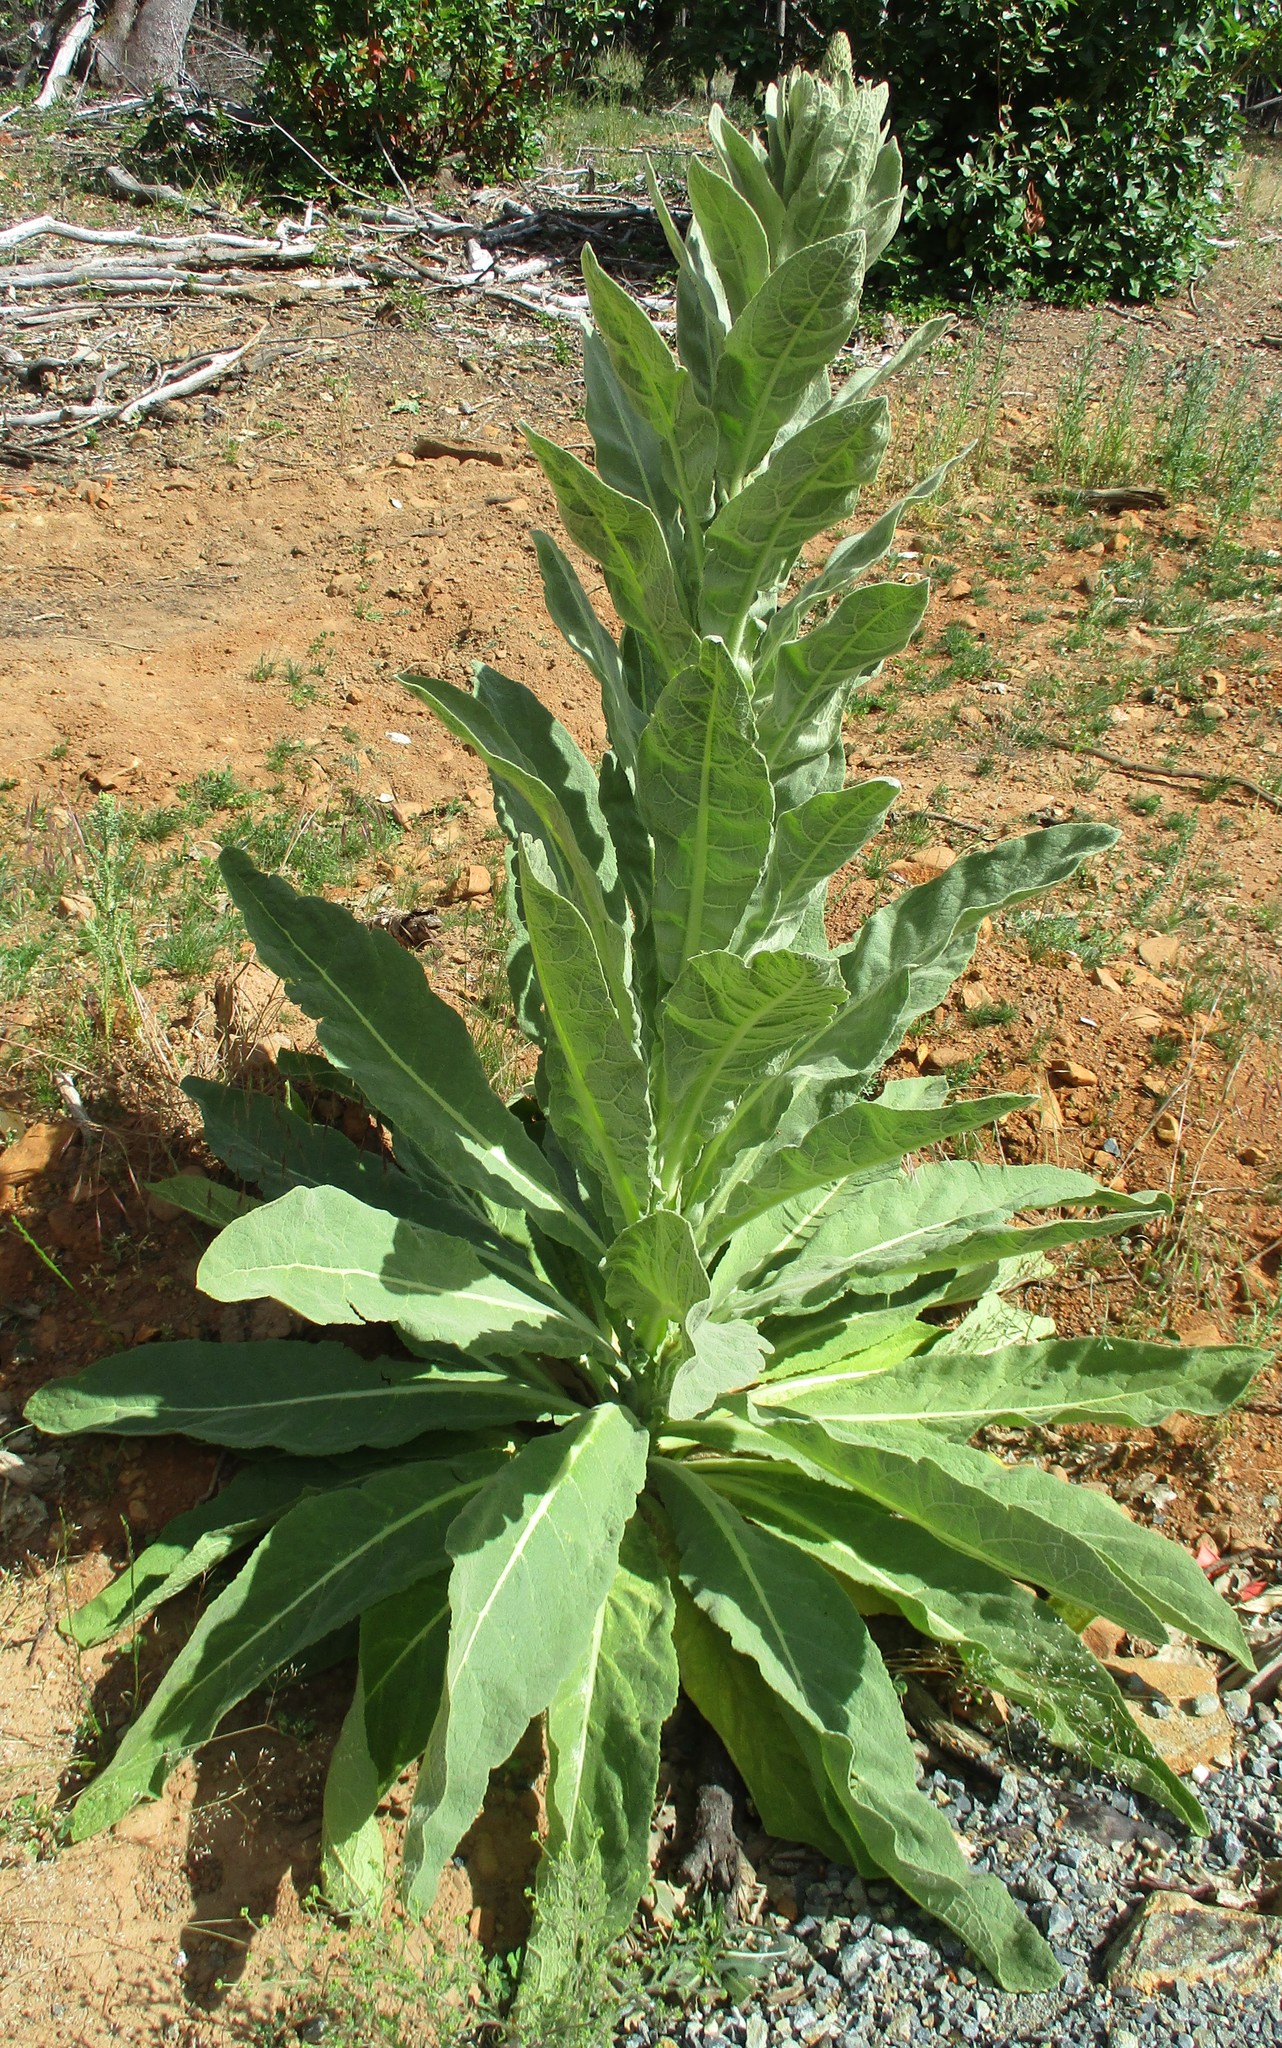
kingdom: Plantae
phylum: Tracheophyta
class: Magnoliopsida
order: Lamiales
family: Scrophulariaceae
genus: Verbascum
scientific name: Verbascum thapsus
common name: Common mullein
